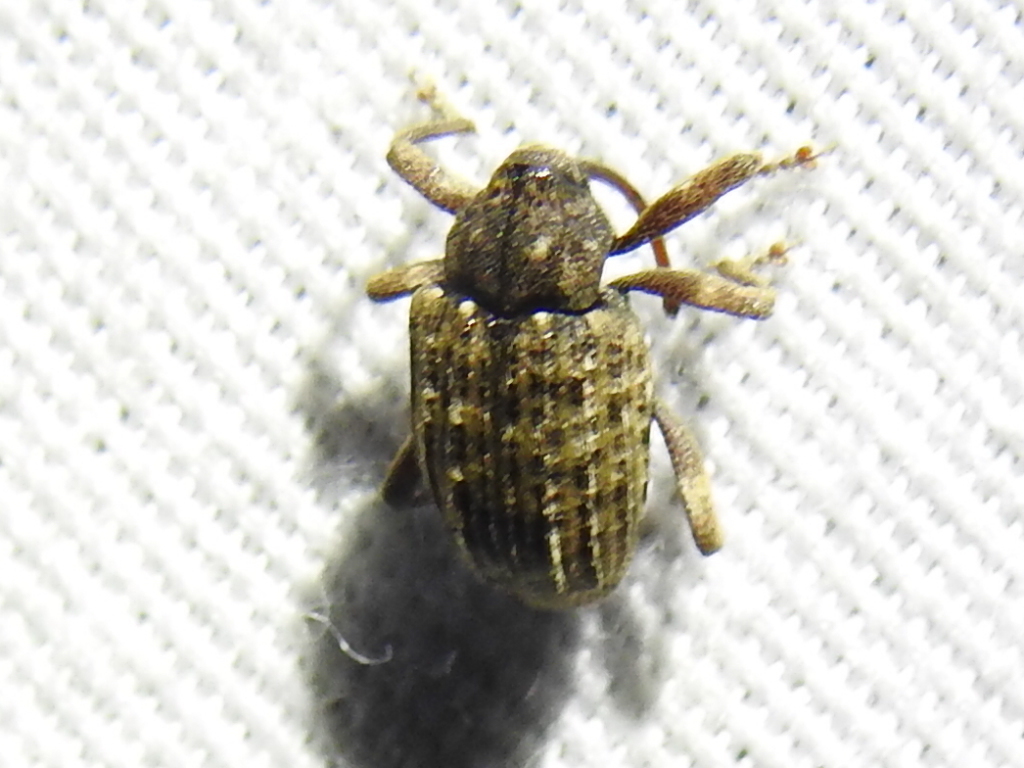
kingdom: Animalia
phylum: Arthropoda
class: Insecta
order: Coleoptera
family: Curculionidae
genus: Conotrachelus
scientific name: Conotrachelus naso
